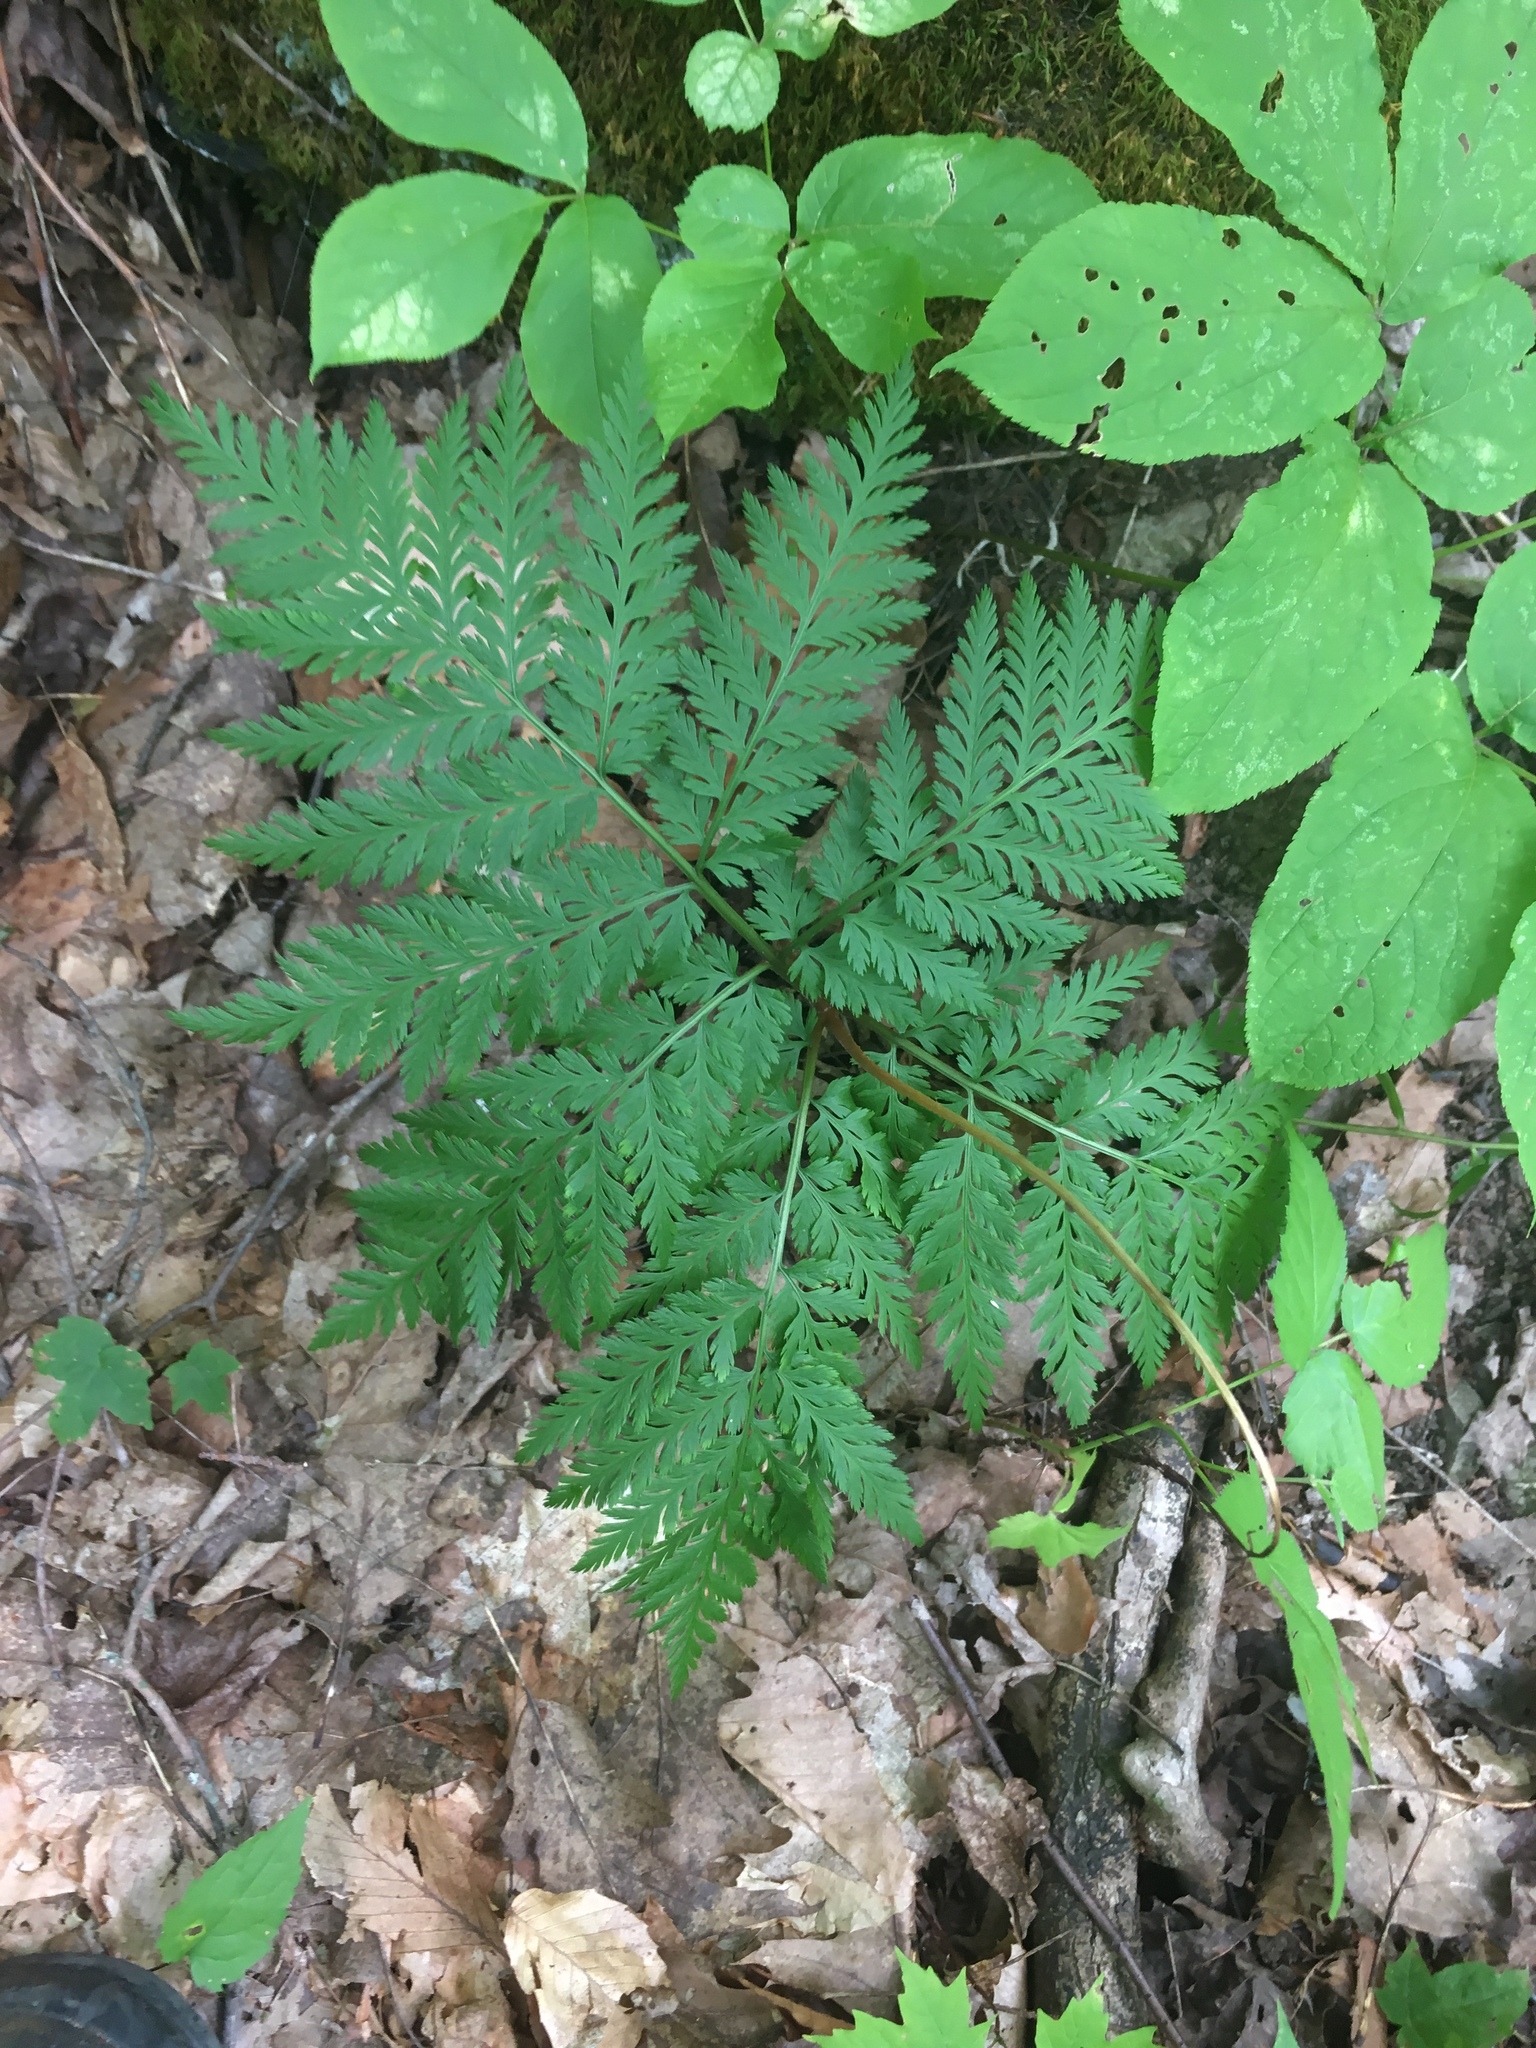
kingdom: Plantae
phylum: Tracheophyta
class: Polypodiopsida
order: Ophioglossales
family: Ophioglossaceae
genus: Botrypus
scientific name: Botrypus virginianus
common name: Common grapefern
